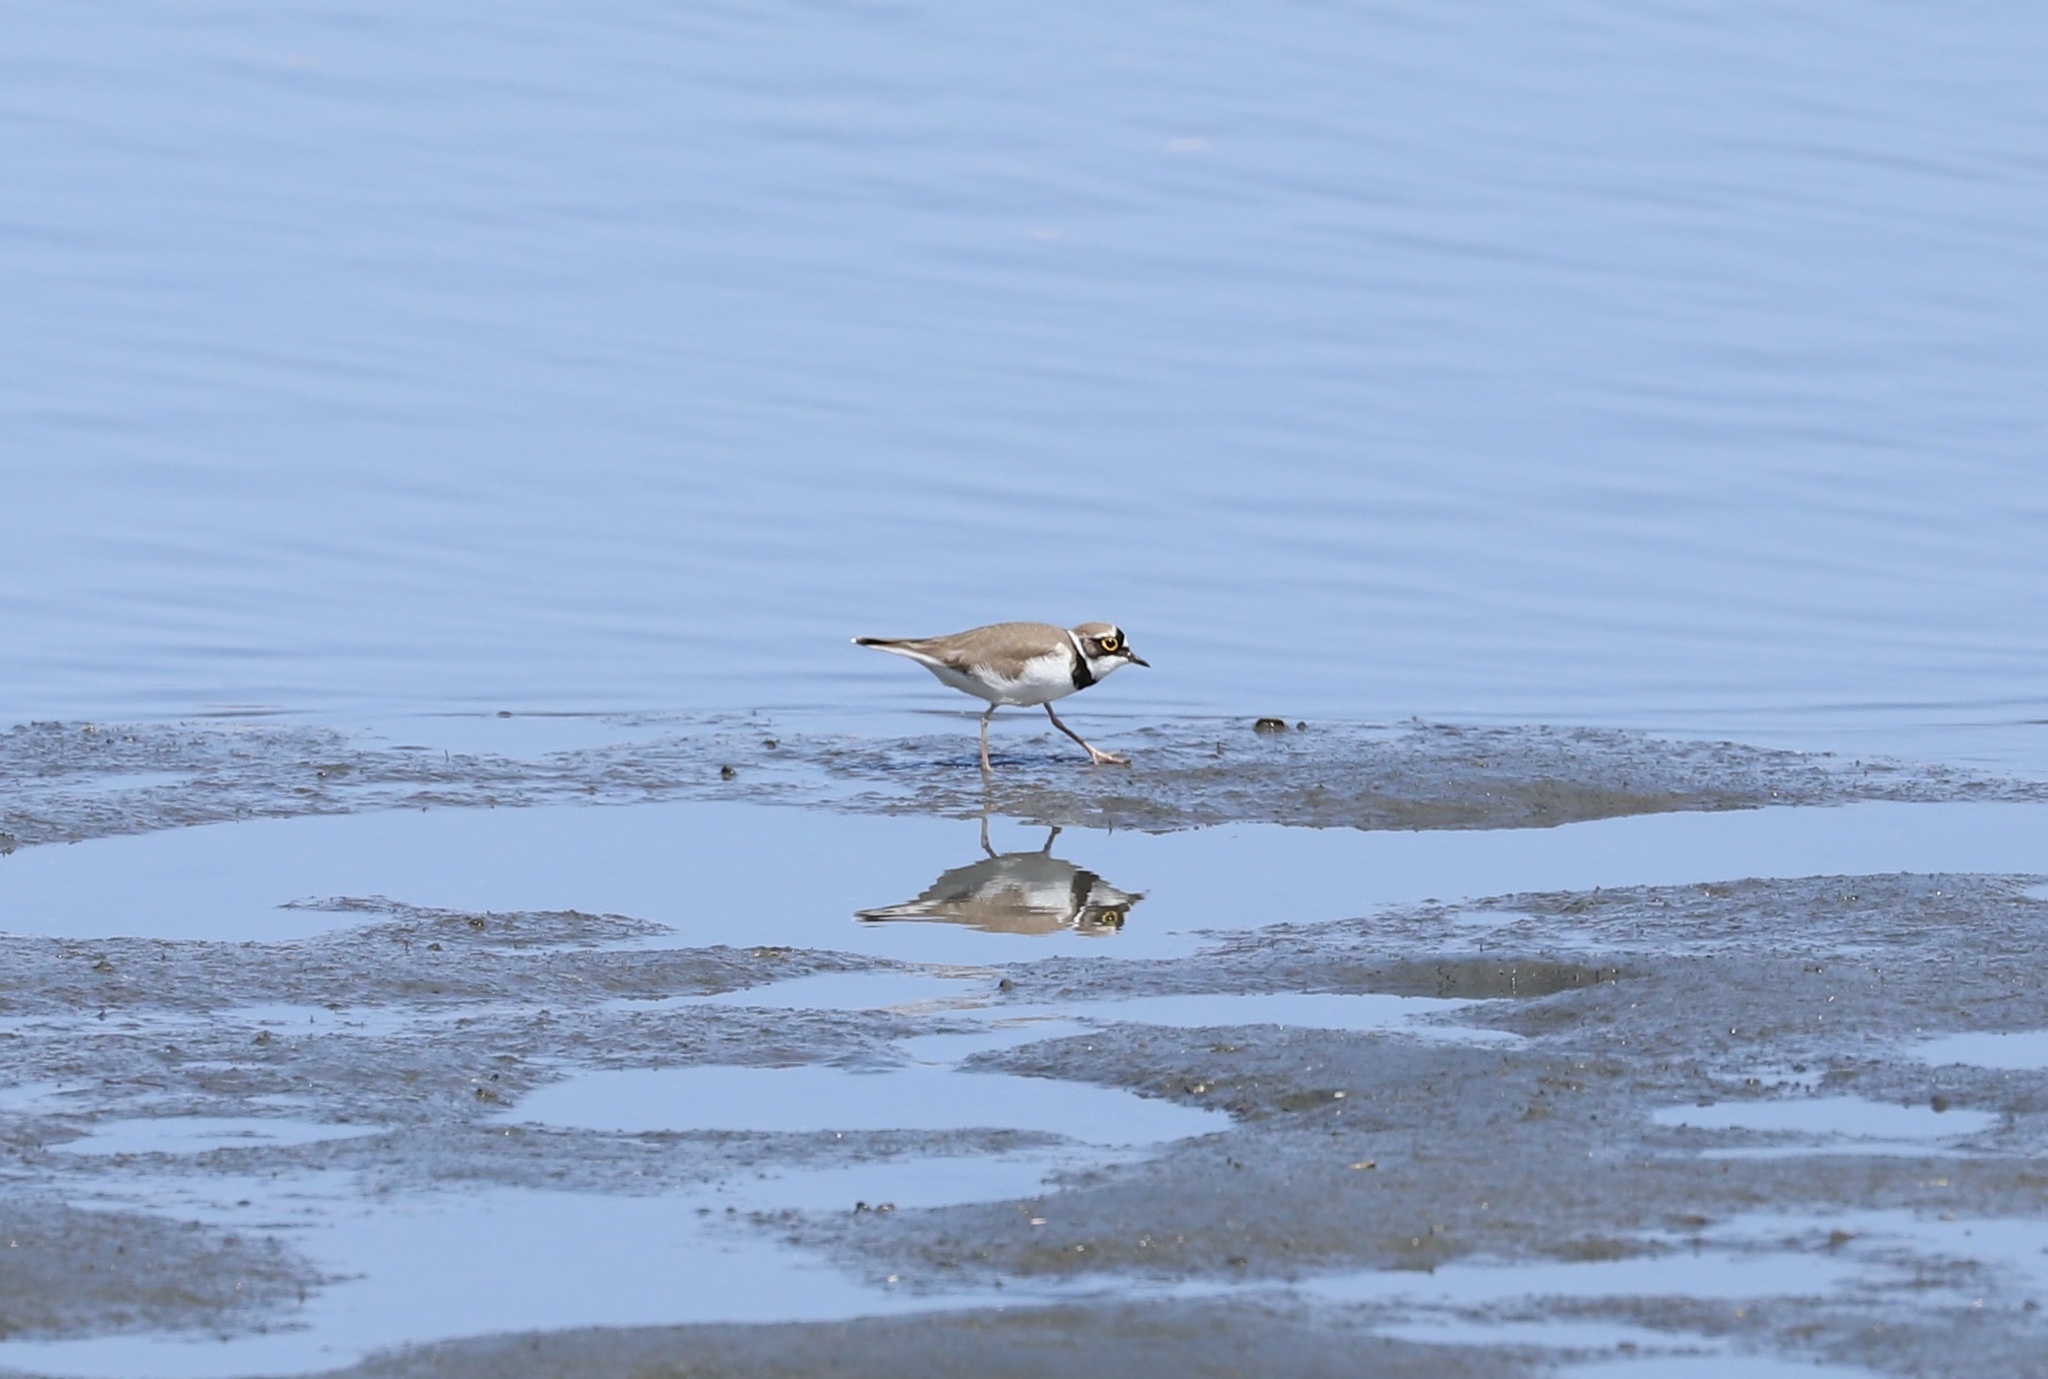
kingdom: Animalia
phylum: Chordata
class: Aves
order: Charadriiformes
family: Charadriidae
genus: Charadrius
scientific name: Charadrius dubius
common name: Little ringed plover
